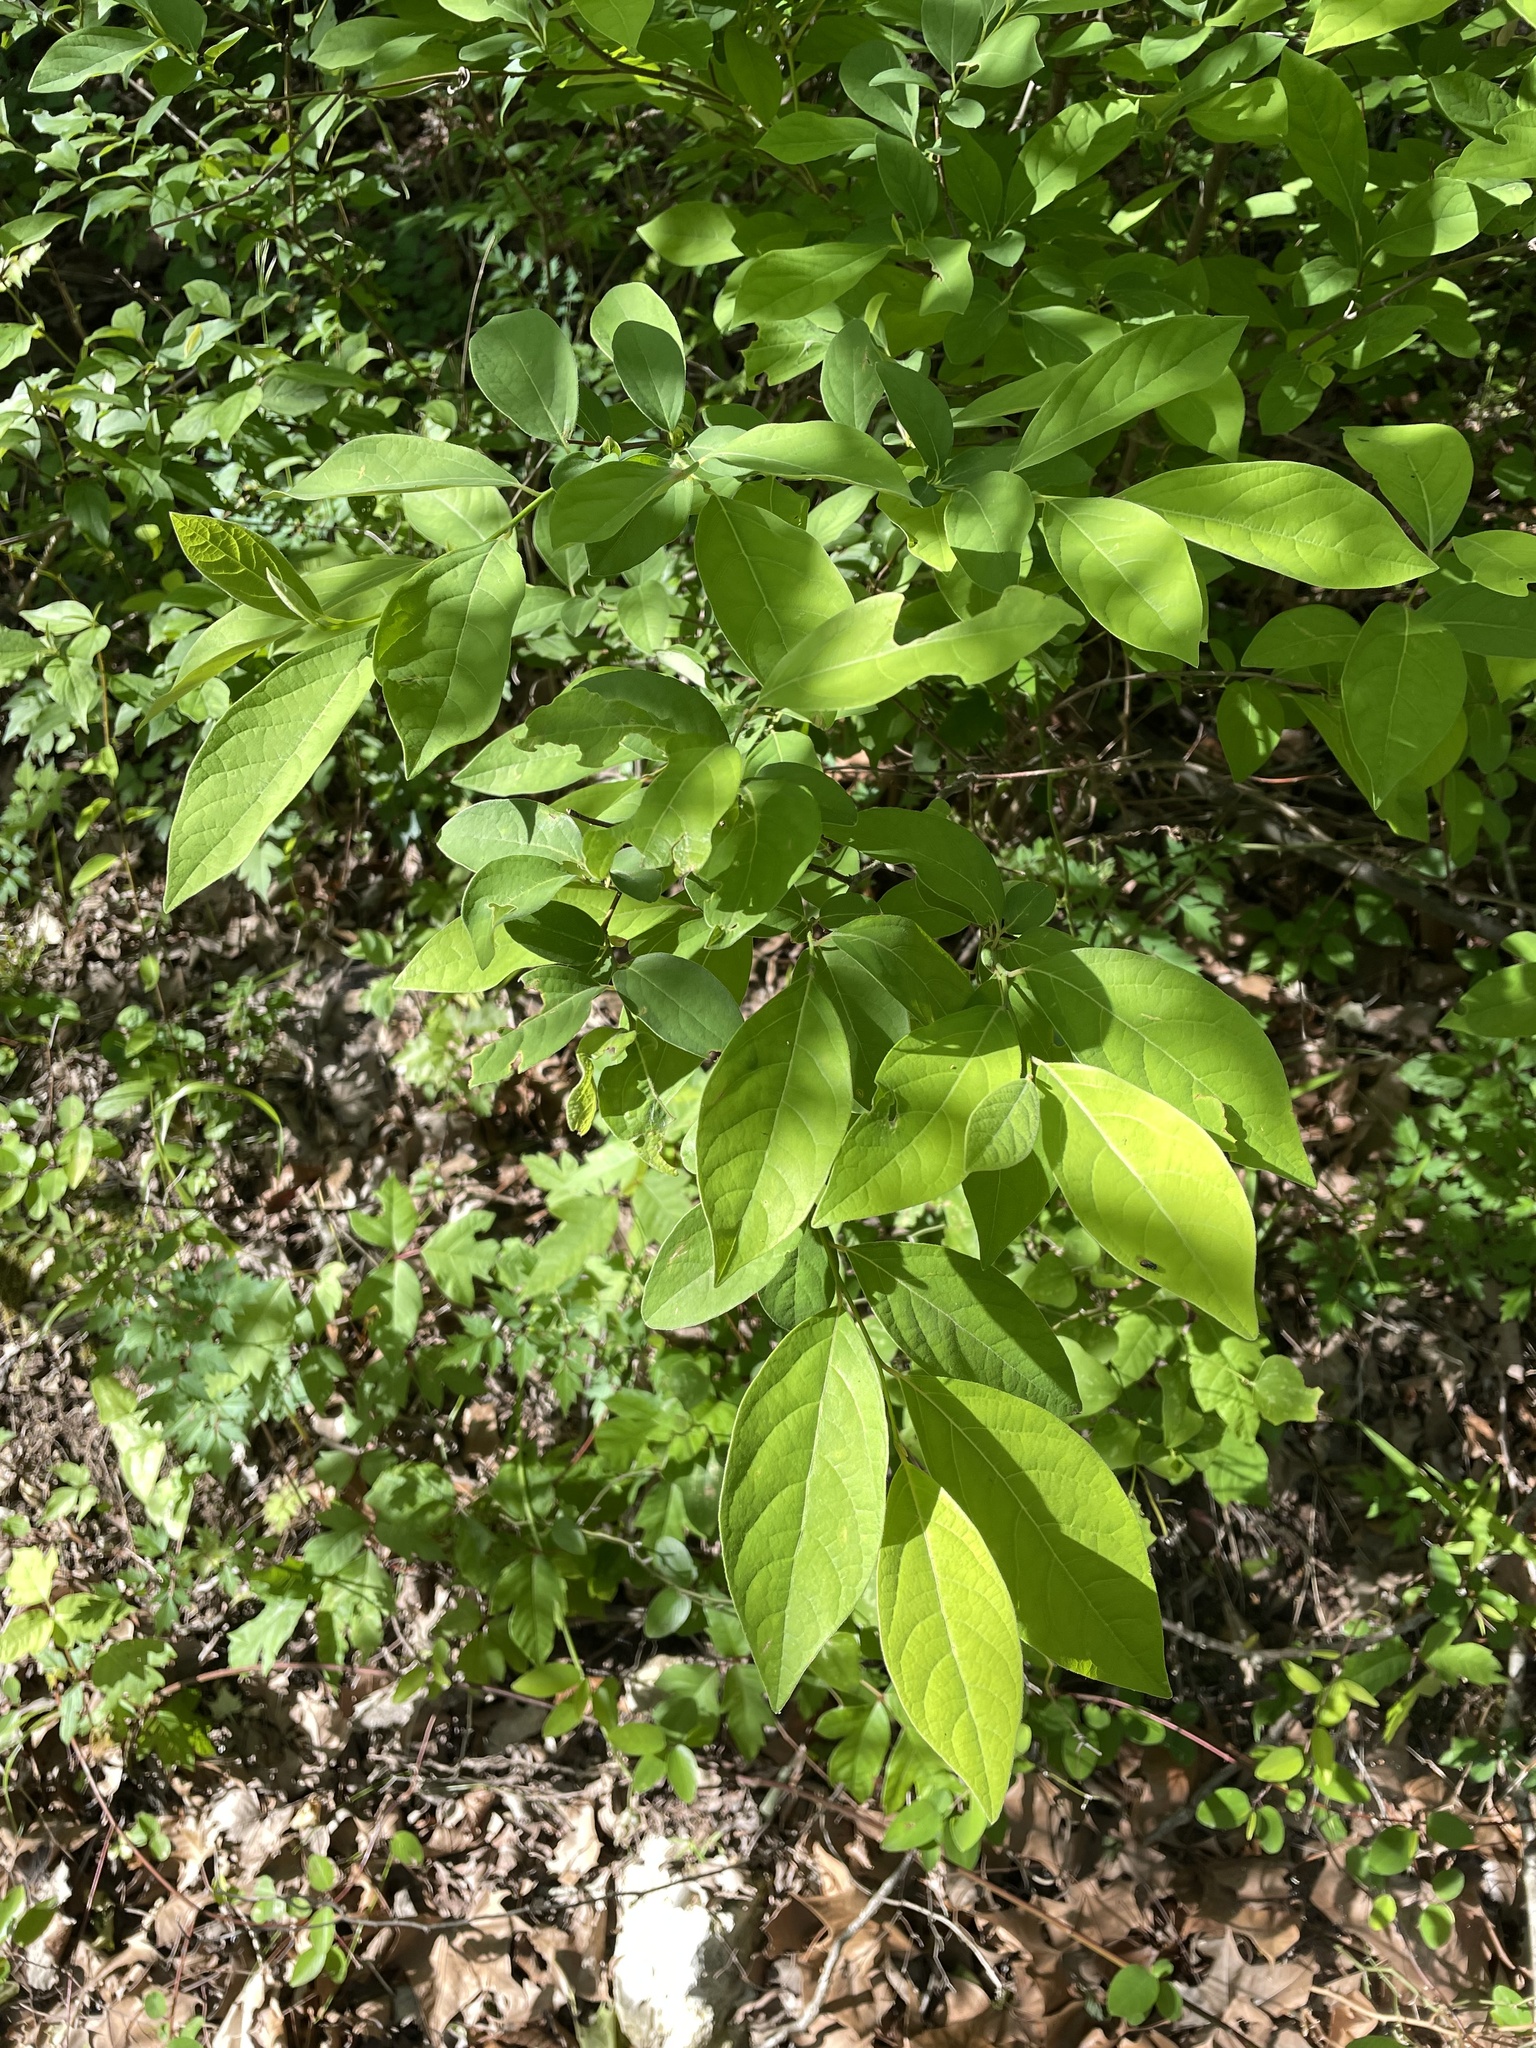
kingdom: Plantae
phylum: Tracheophyta
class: Magnoliopsida
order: Laurales
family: Lauraceae
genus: Lindera
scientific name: Lindera benzoin
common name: Spicebush
